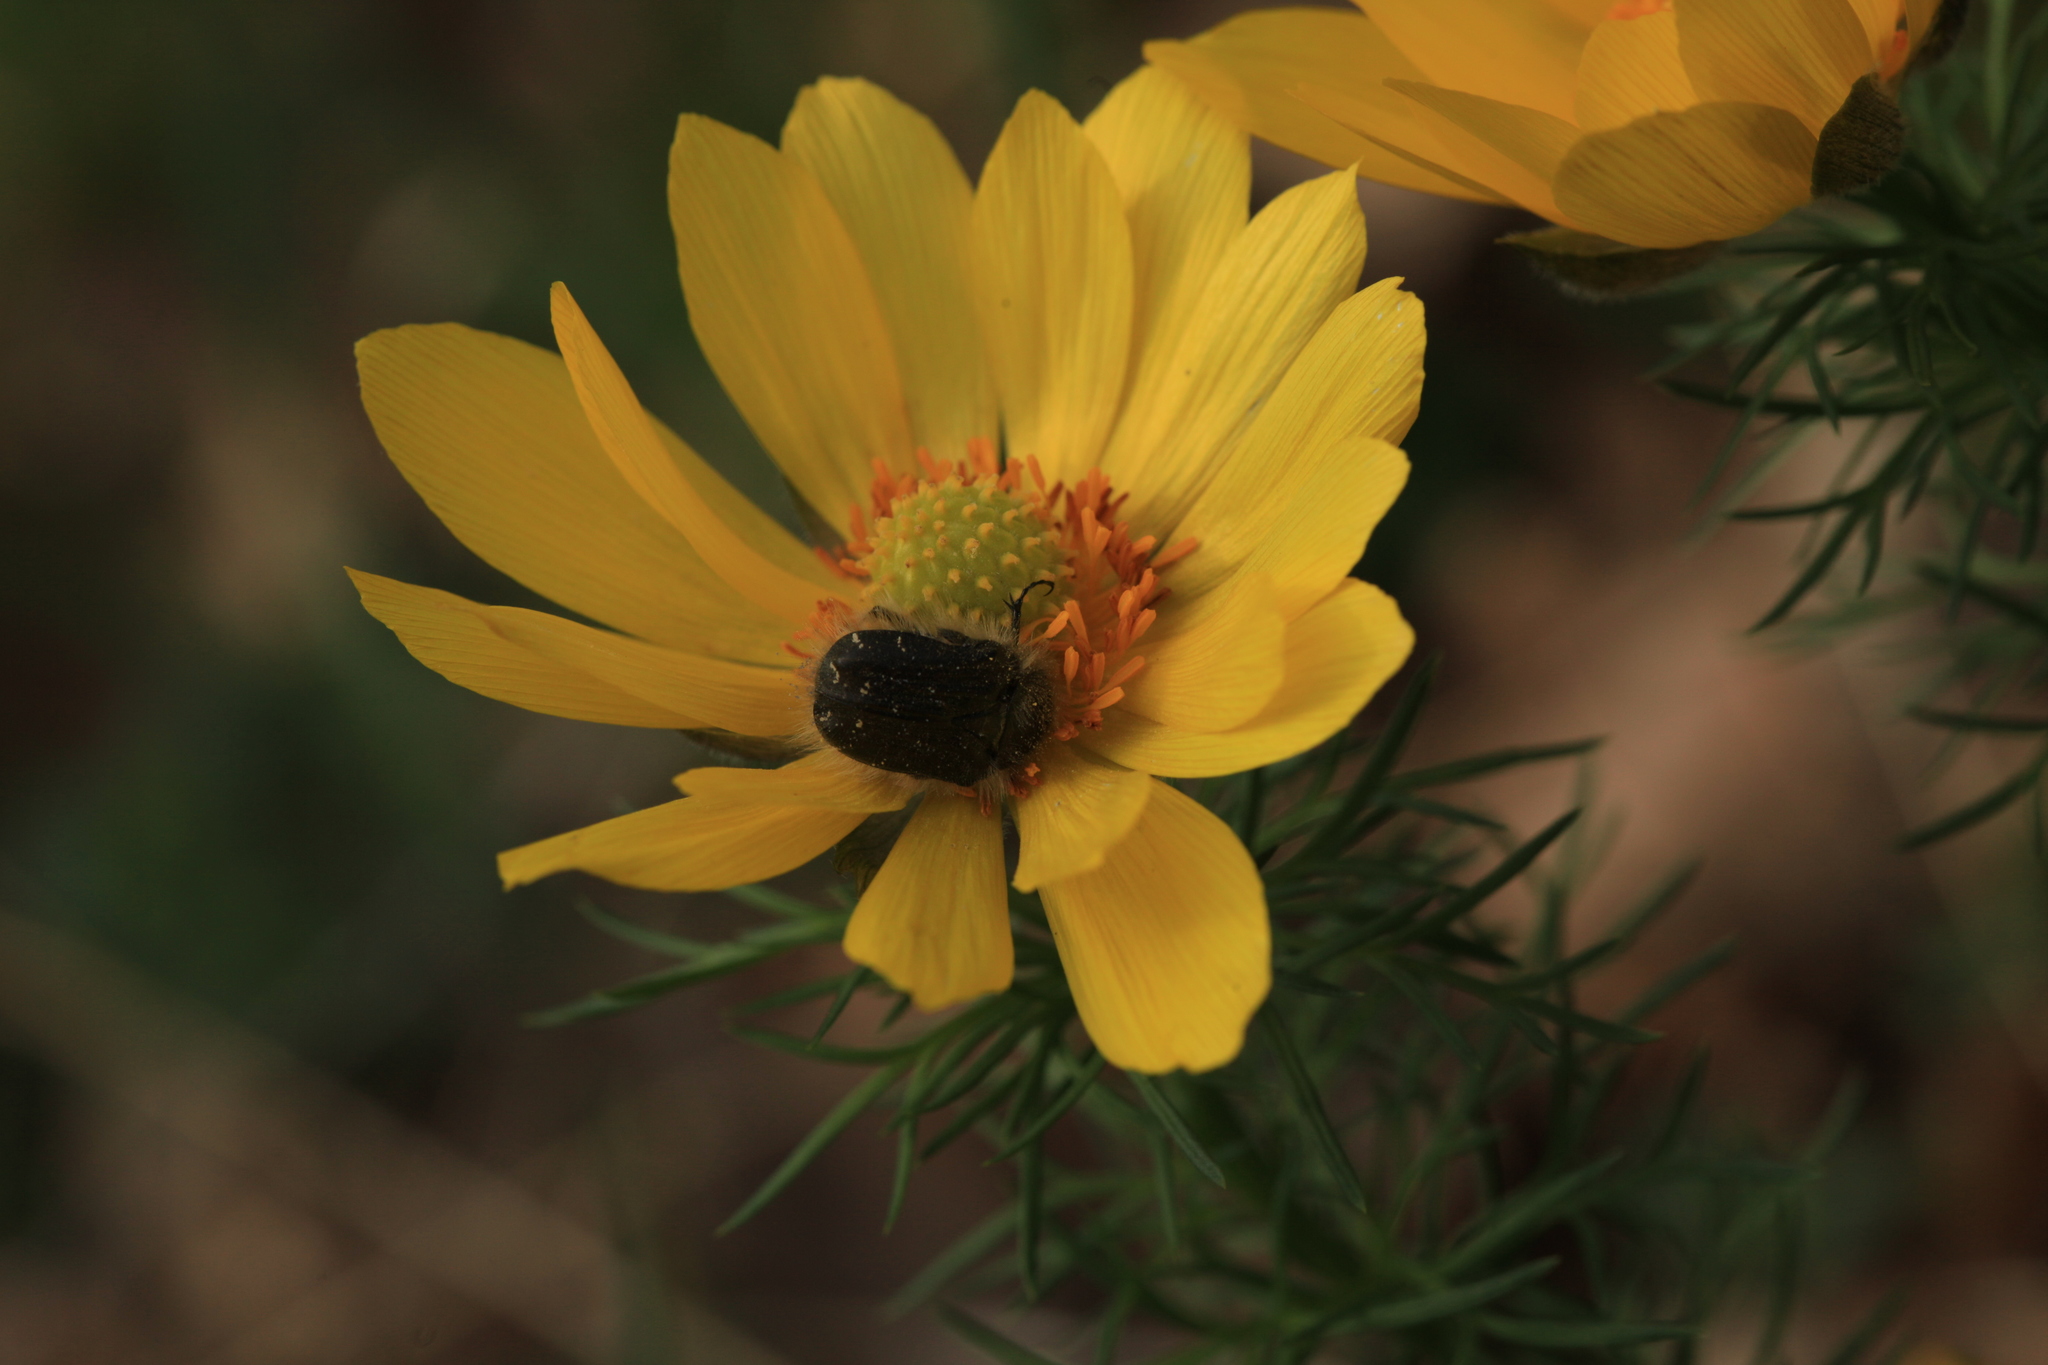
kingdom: Animalia
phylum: Arthropoda
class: Insecta
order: Coleoptera
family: Scarabaeidae
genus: Tropinota
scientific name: Tropinota hirta
